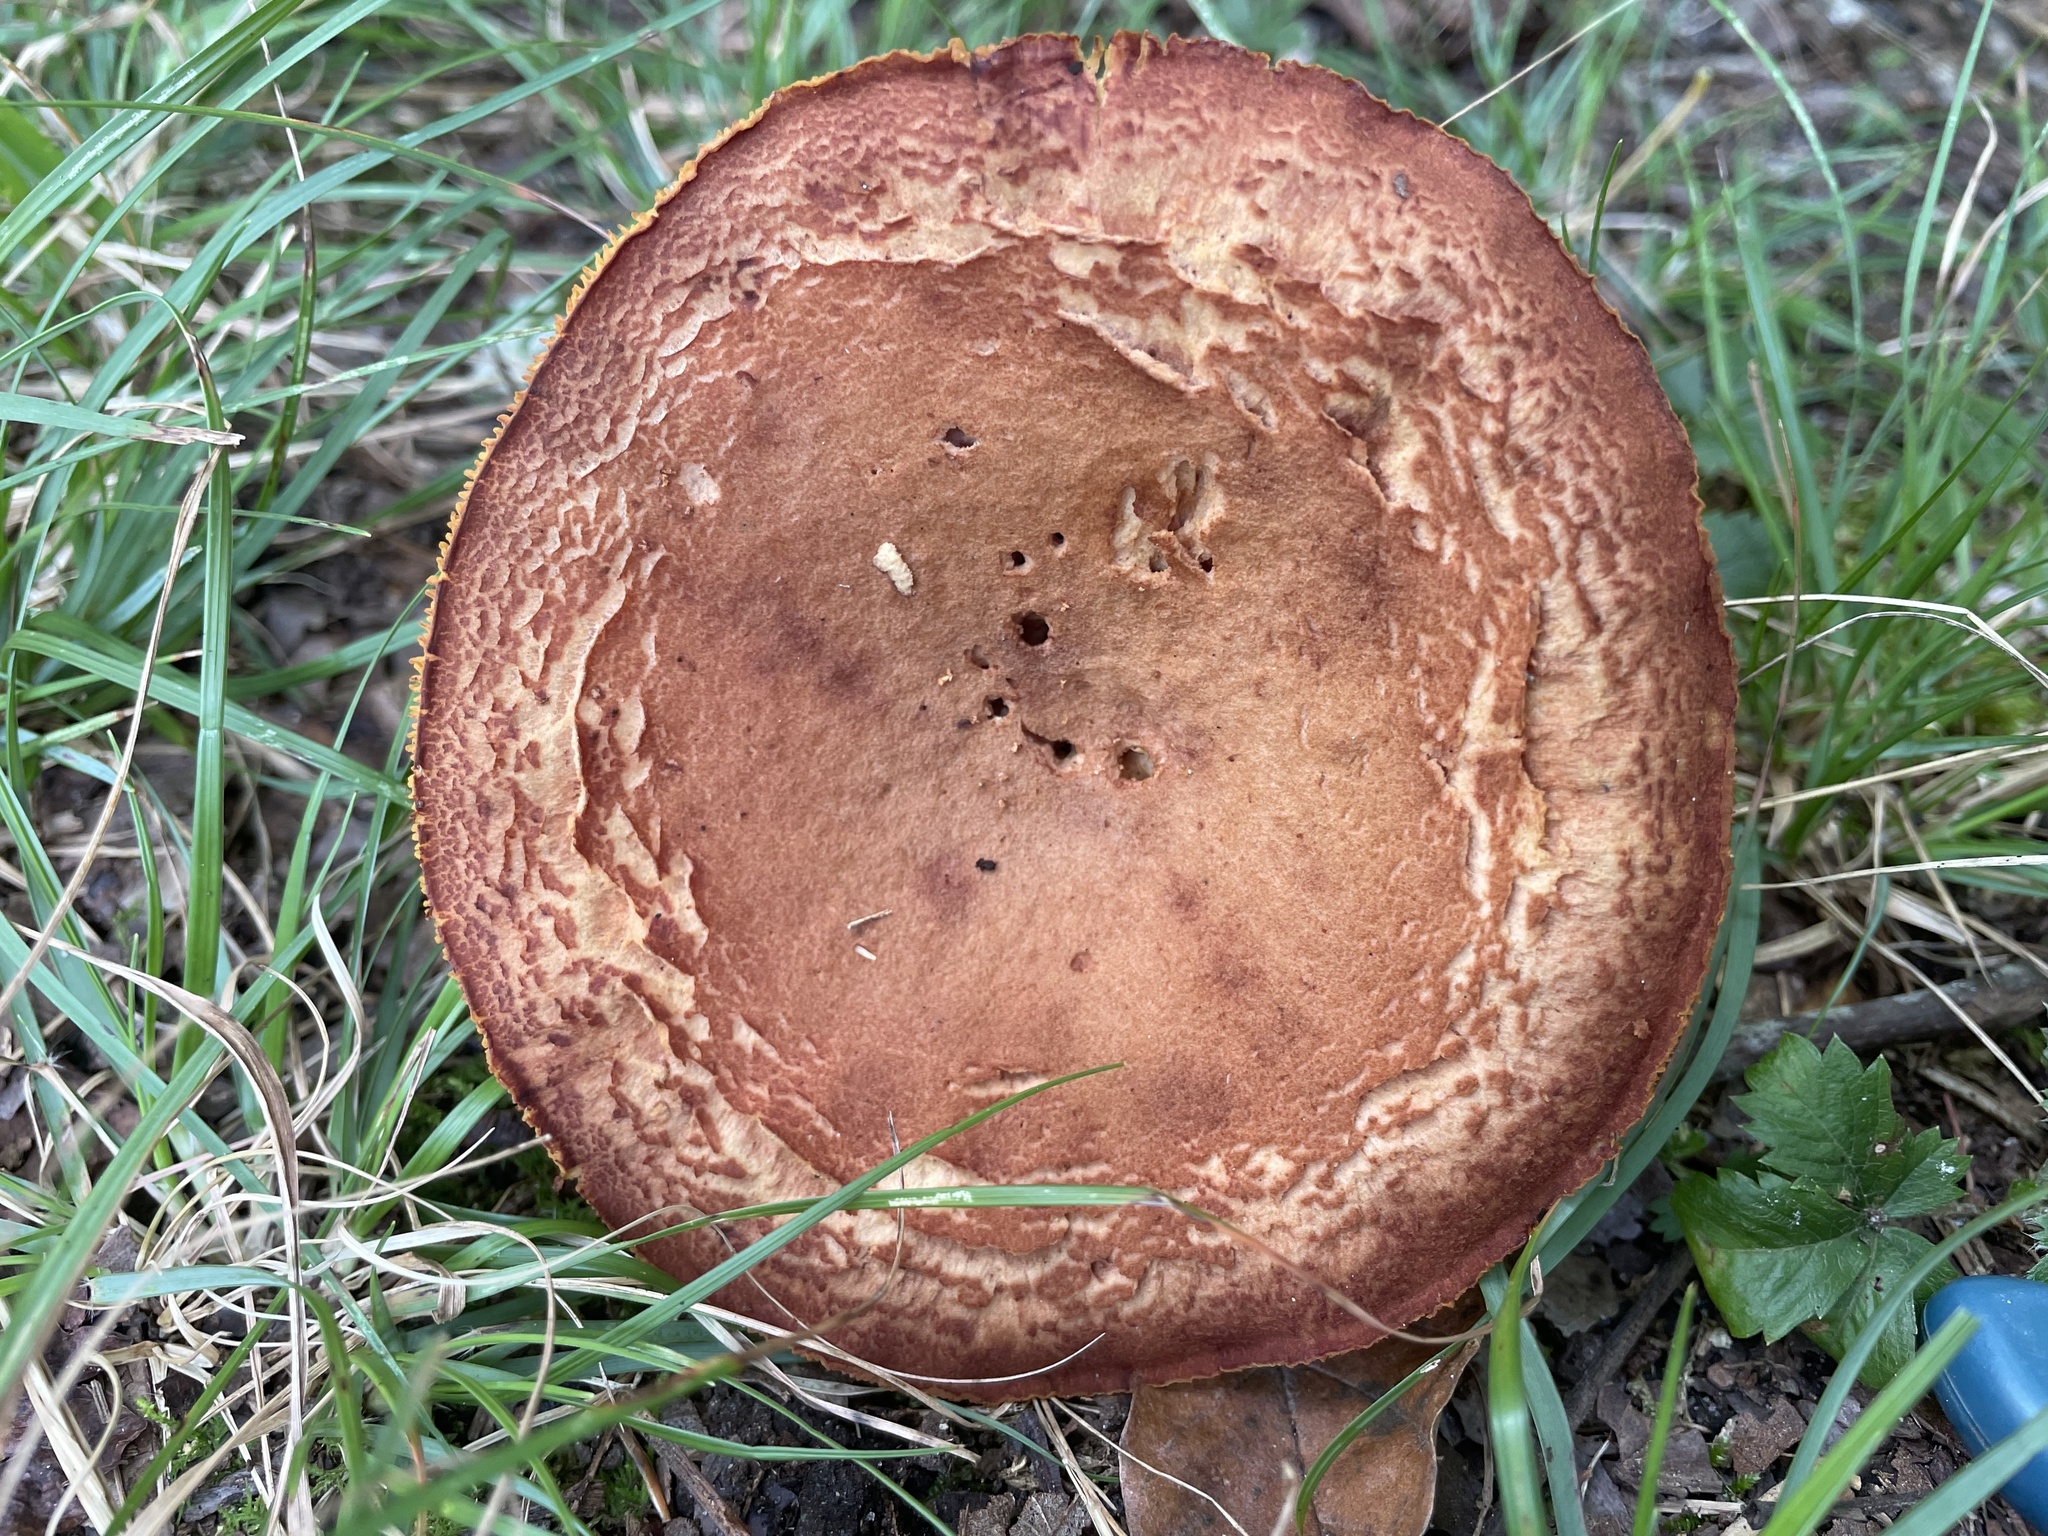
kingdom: Fungi
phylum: Basidiomycota
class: Agaricomycetes
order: Boletales
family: Boletaceae
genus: Phylloporus
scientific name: Phylloporus rhodoxanthus
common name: Golden gilled bolete
